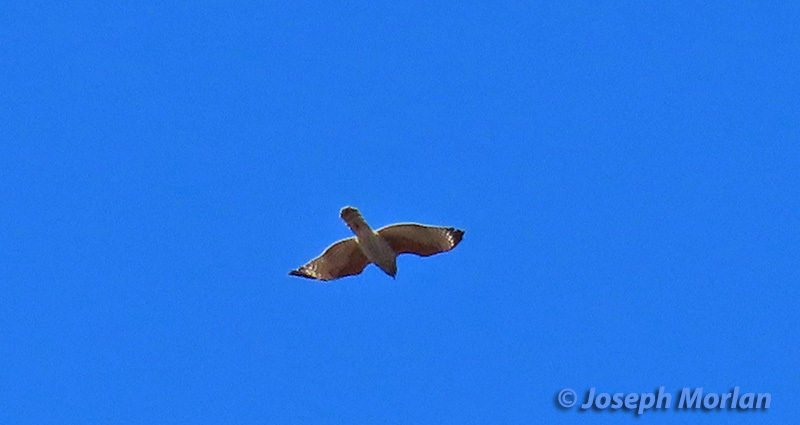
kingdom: Animalia
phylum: Chordata
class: Aves
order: Accipitriformes
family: Accipitridae
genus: Buteo
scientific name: Buteo lineatus
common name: Red-shouldered hawk
